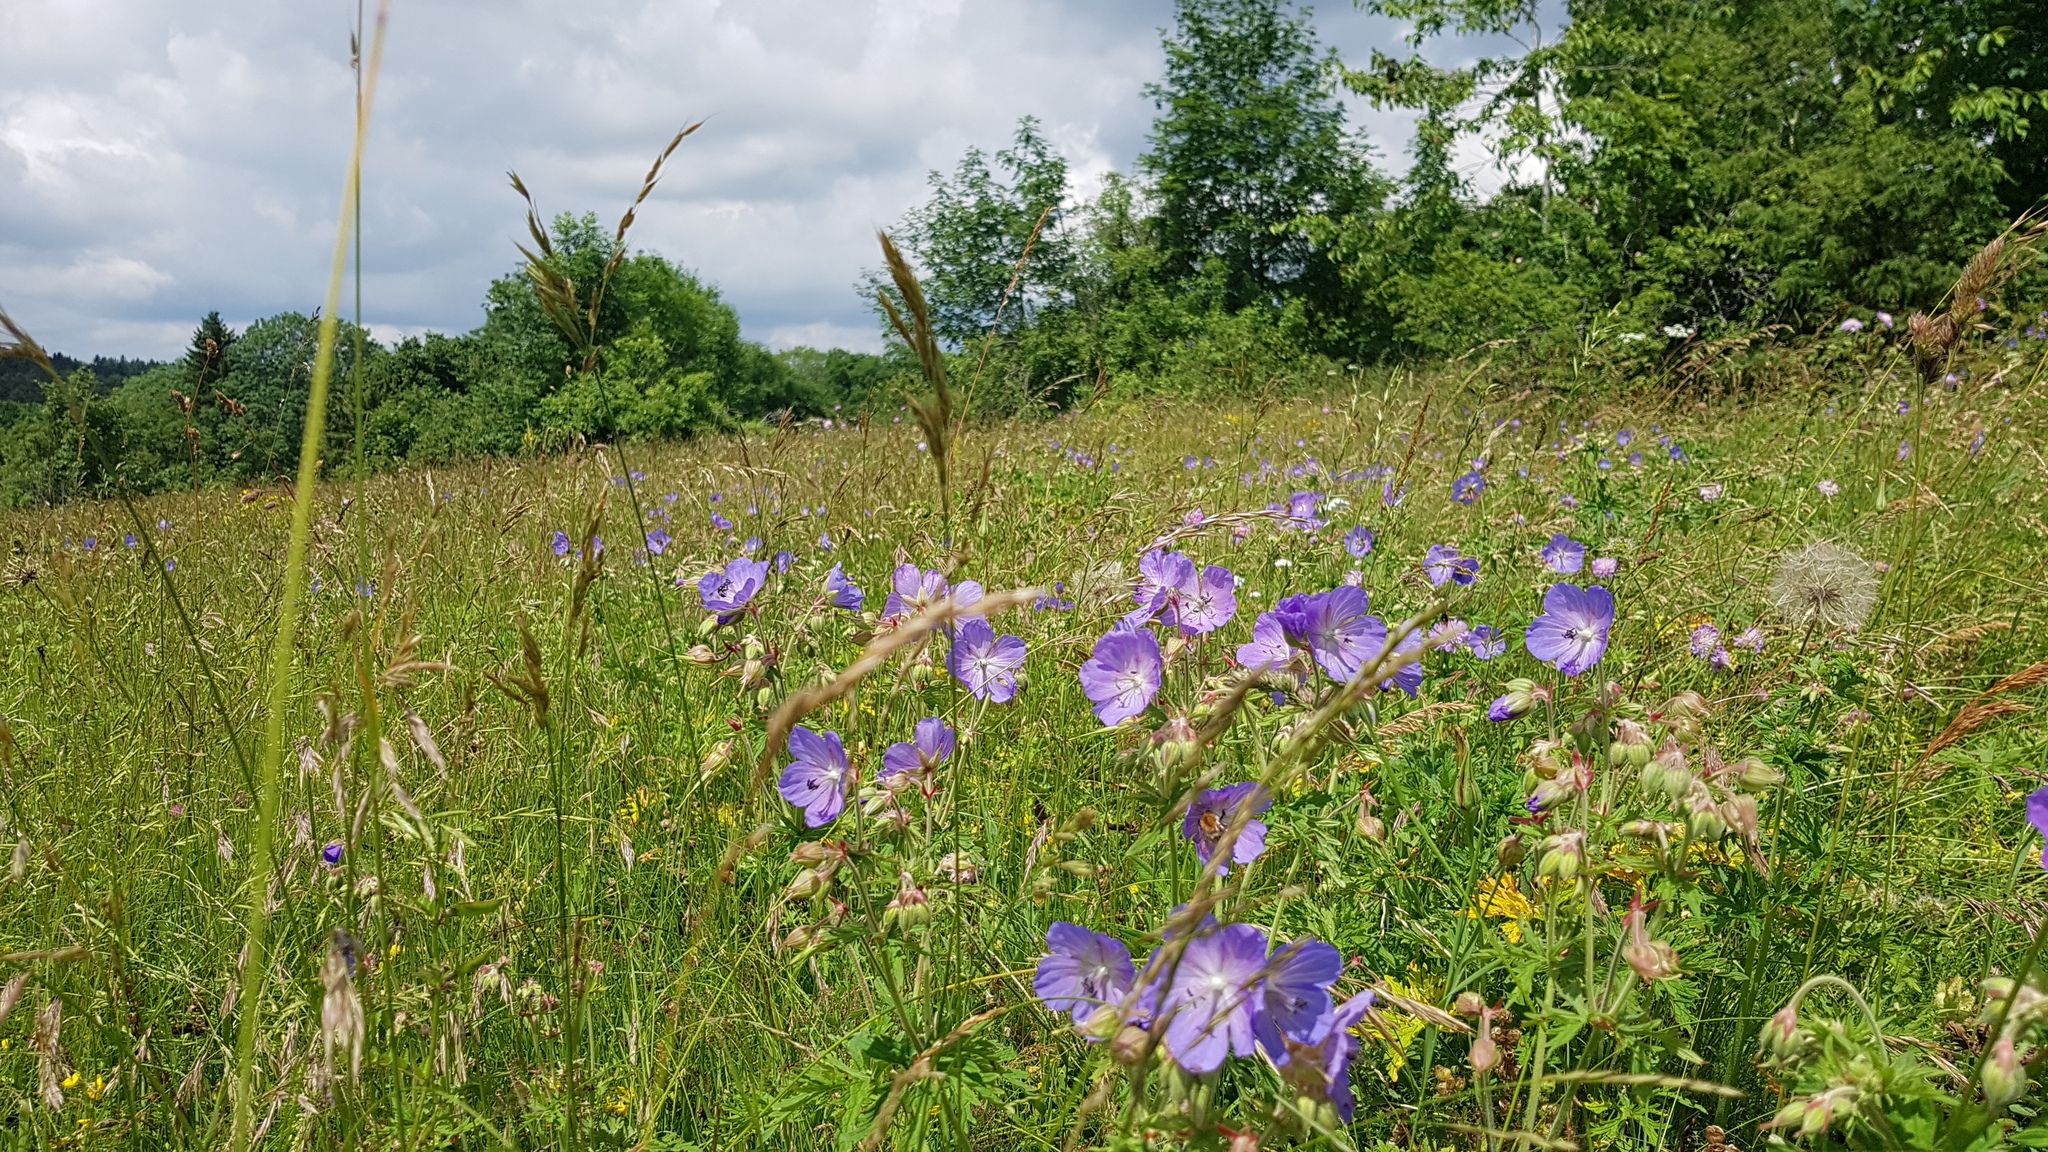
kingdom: Plantae
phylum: Tracheophyta
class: Magnoliopsida
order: Geraniales
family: Geraniaceae
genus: Geranium
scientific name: Geranium pratense
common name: Meadow crane's-bill
